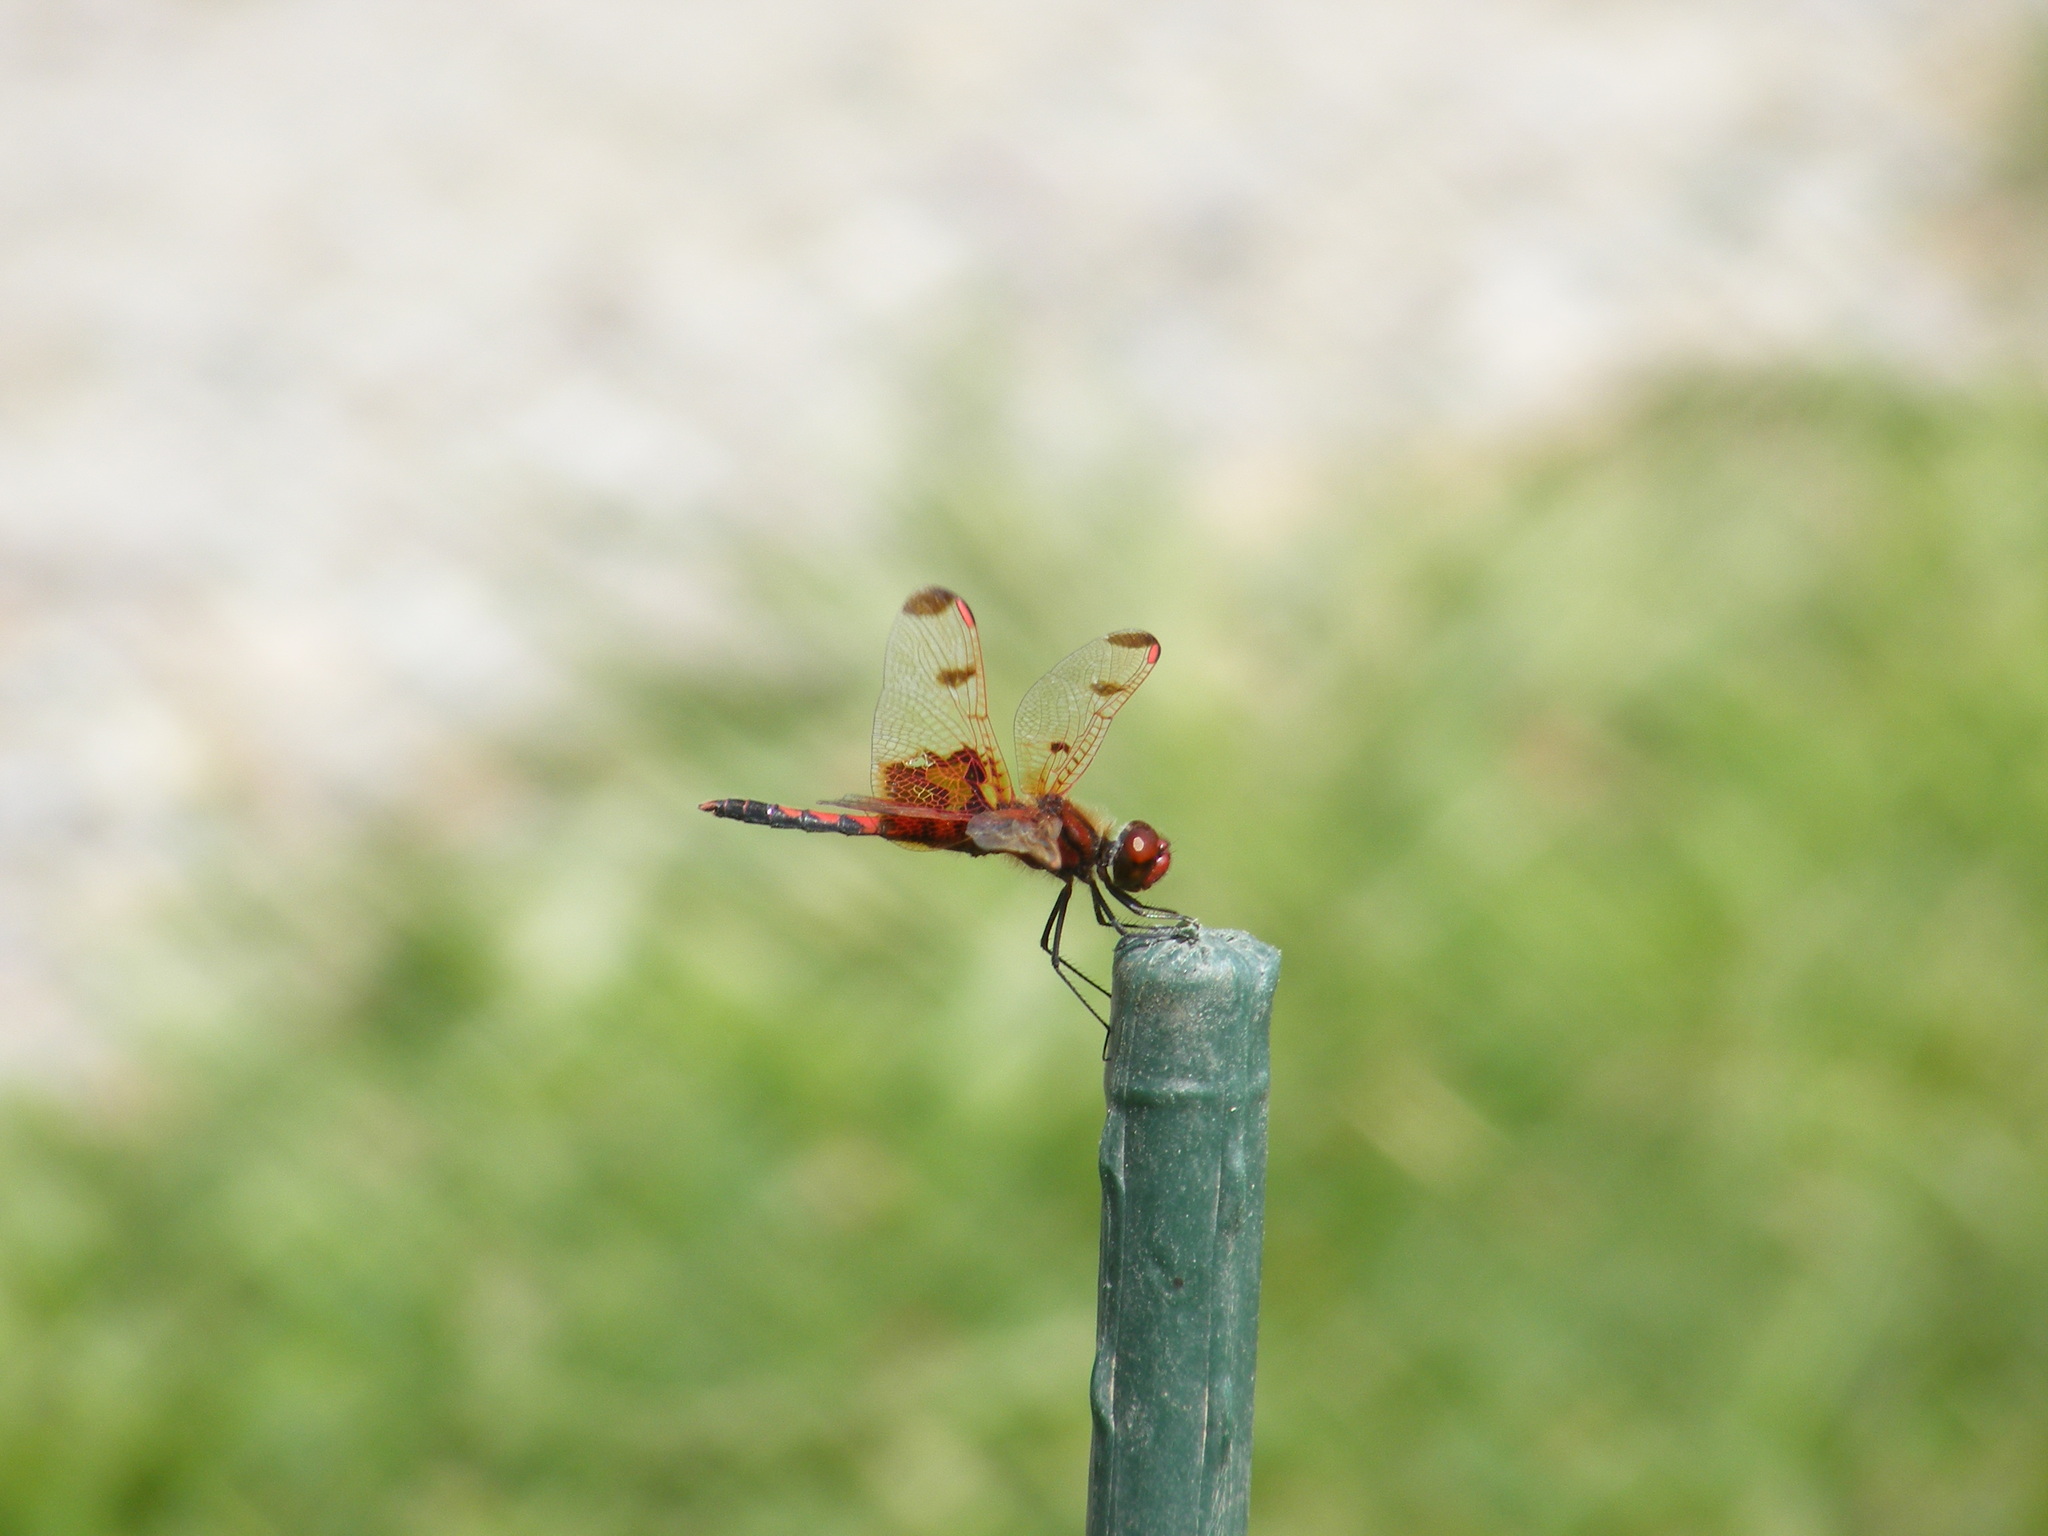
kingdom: Animalia
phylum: Arthropoda
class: Insecta
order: Odonata
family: Libellulidae
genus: Celithemis
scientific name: Celithemis elisa
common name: Calico pennant
